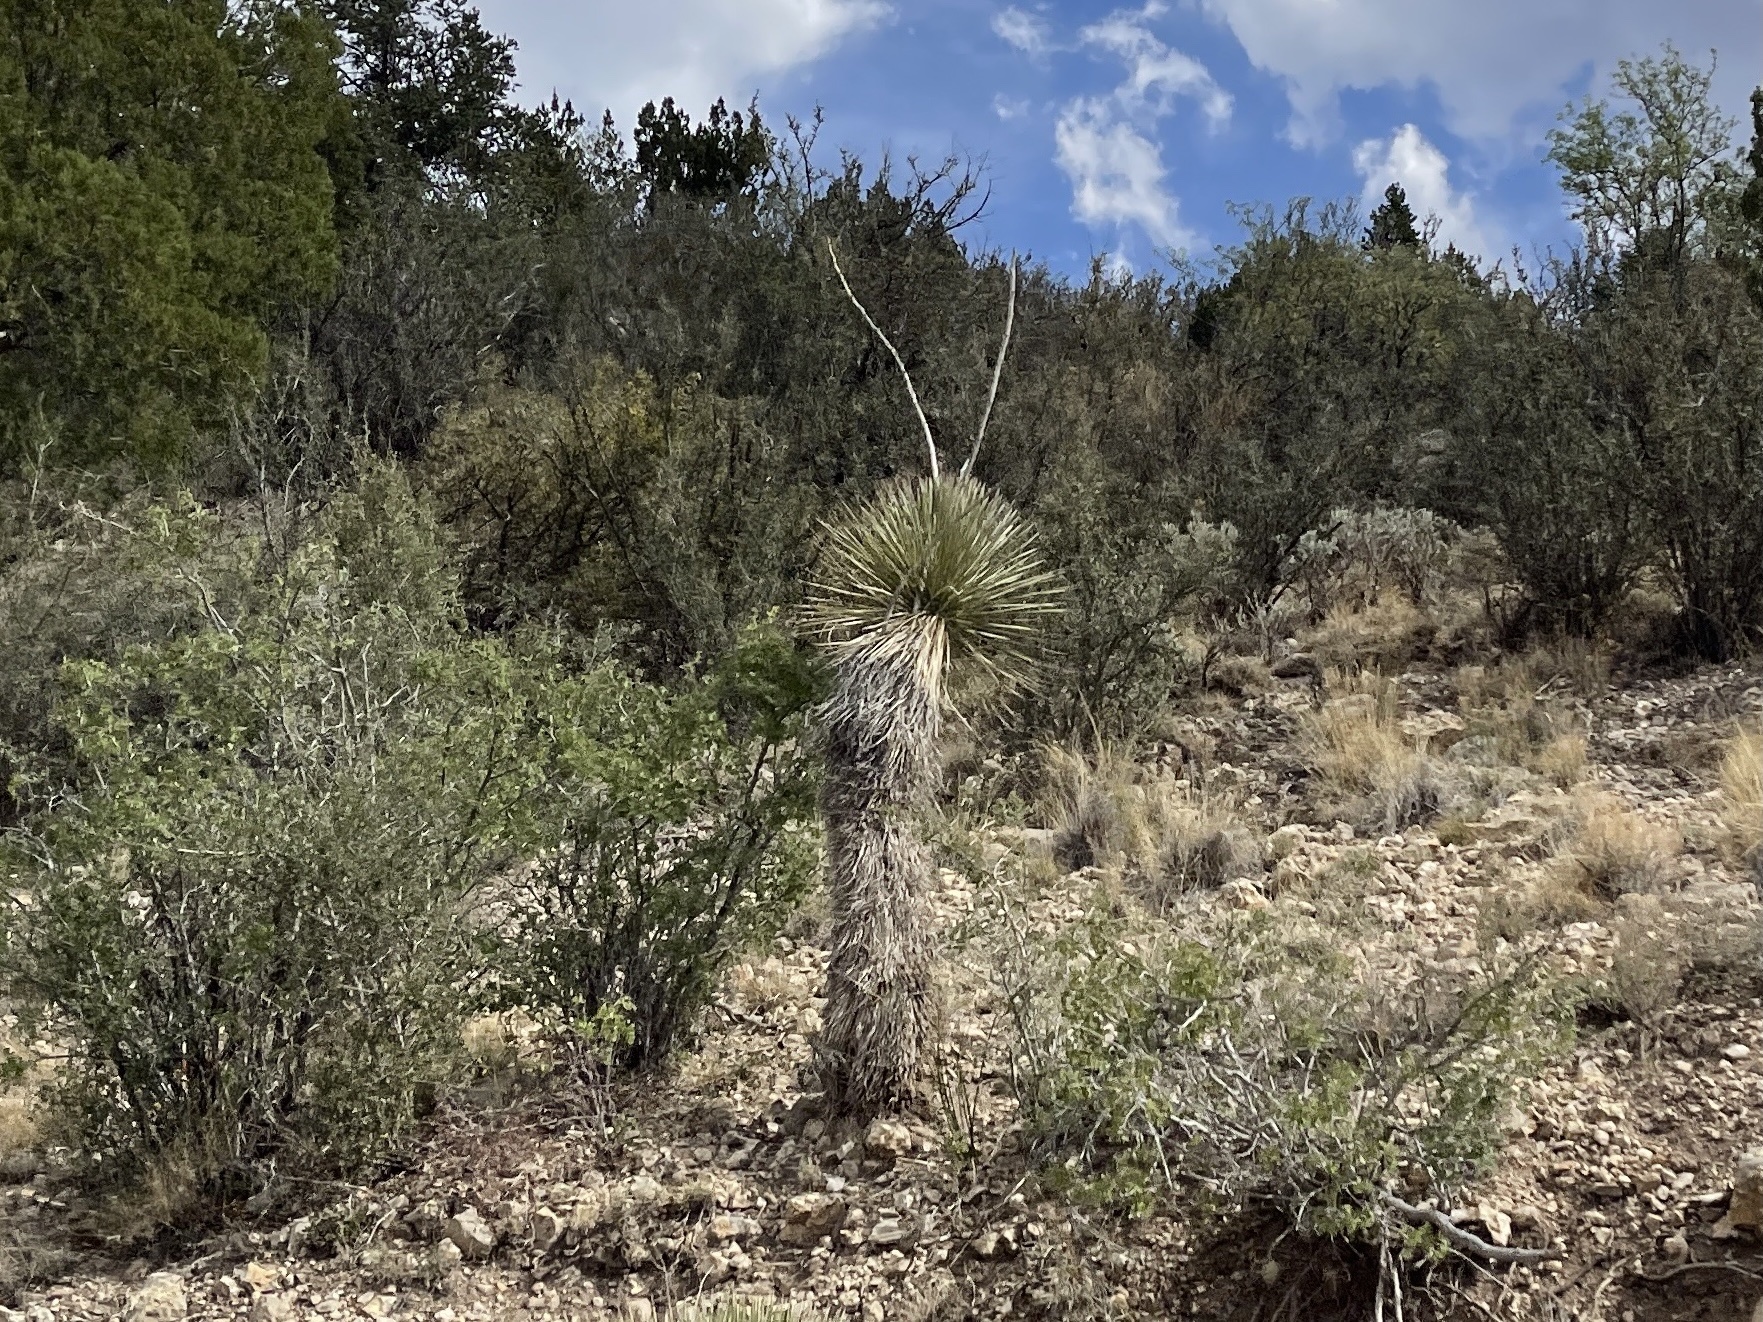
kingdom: Plantae
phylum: Tracheophyta
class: Liliopsida
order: Asparagales
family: Asparagaceae
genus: Yucca
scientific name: Yucca elata
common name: Palmella
